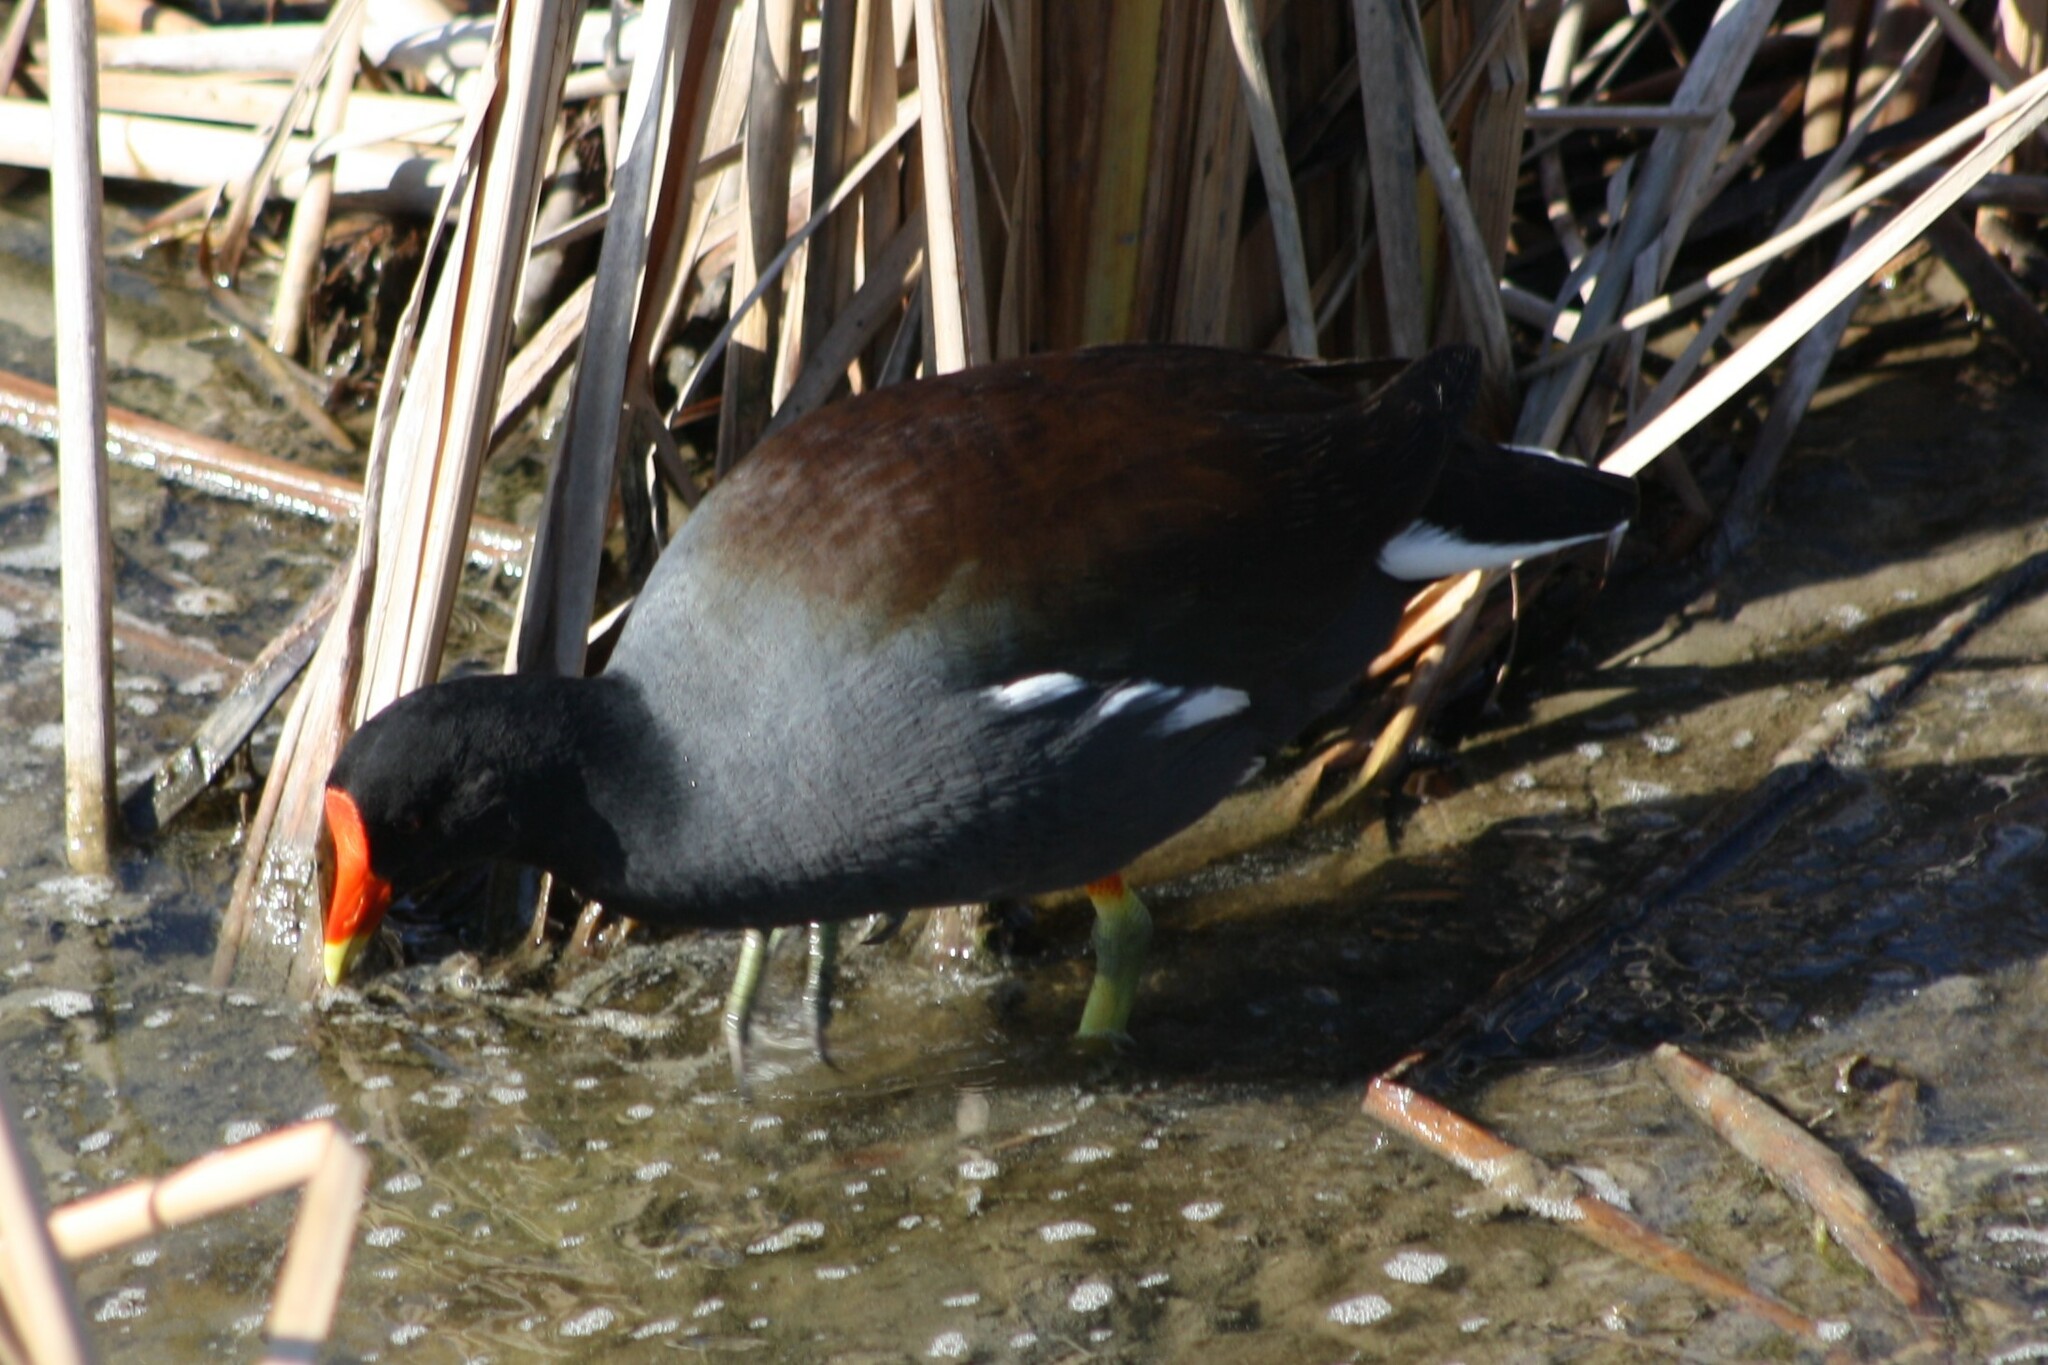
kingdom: Animalia
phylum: Chordata
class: Aves
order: Gruiformes
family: Rallidae
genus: Gallinula
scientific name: Gallinula chloropus
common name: Common moorhen
